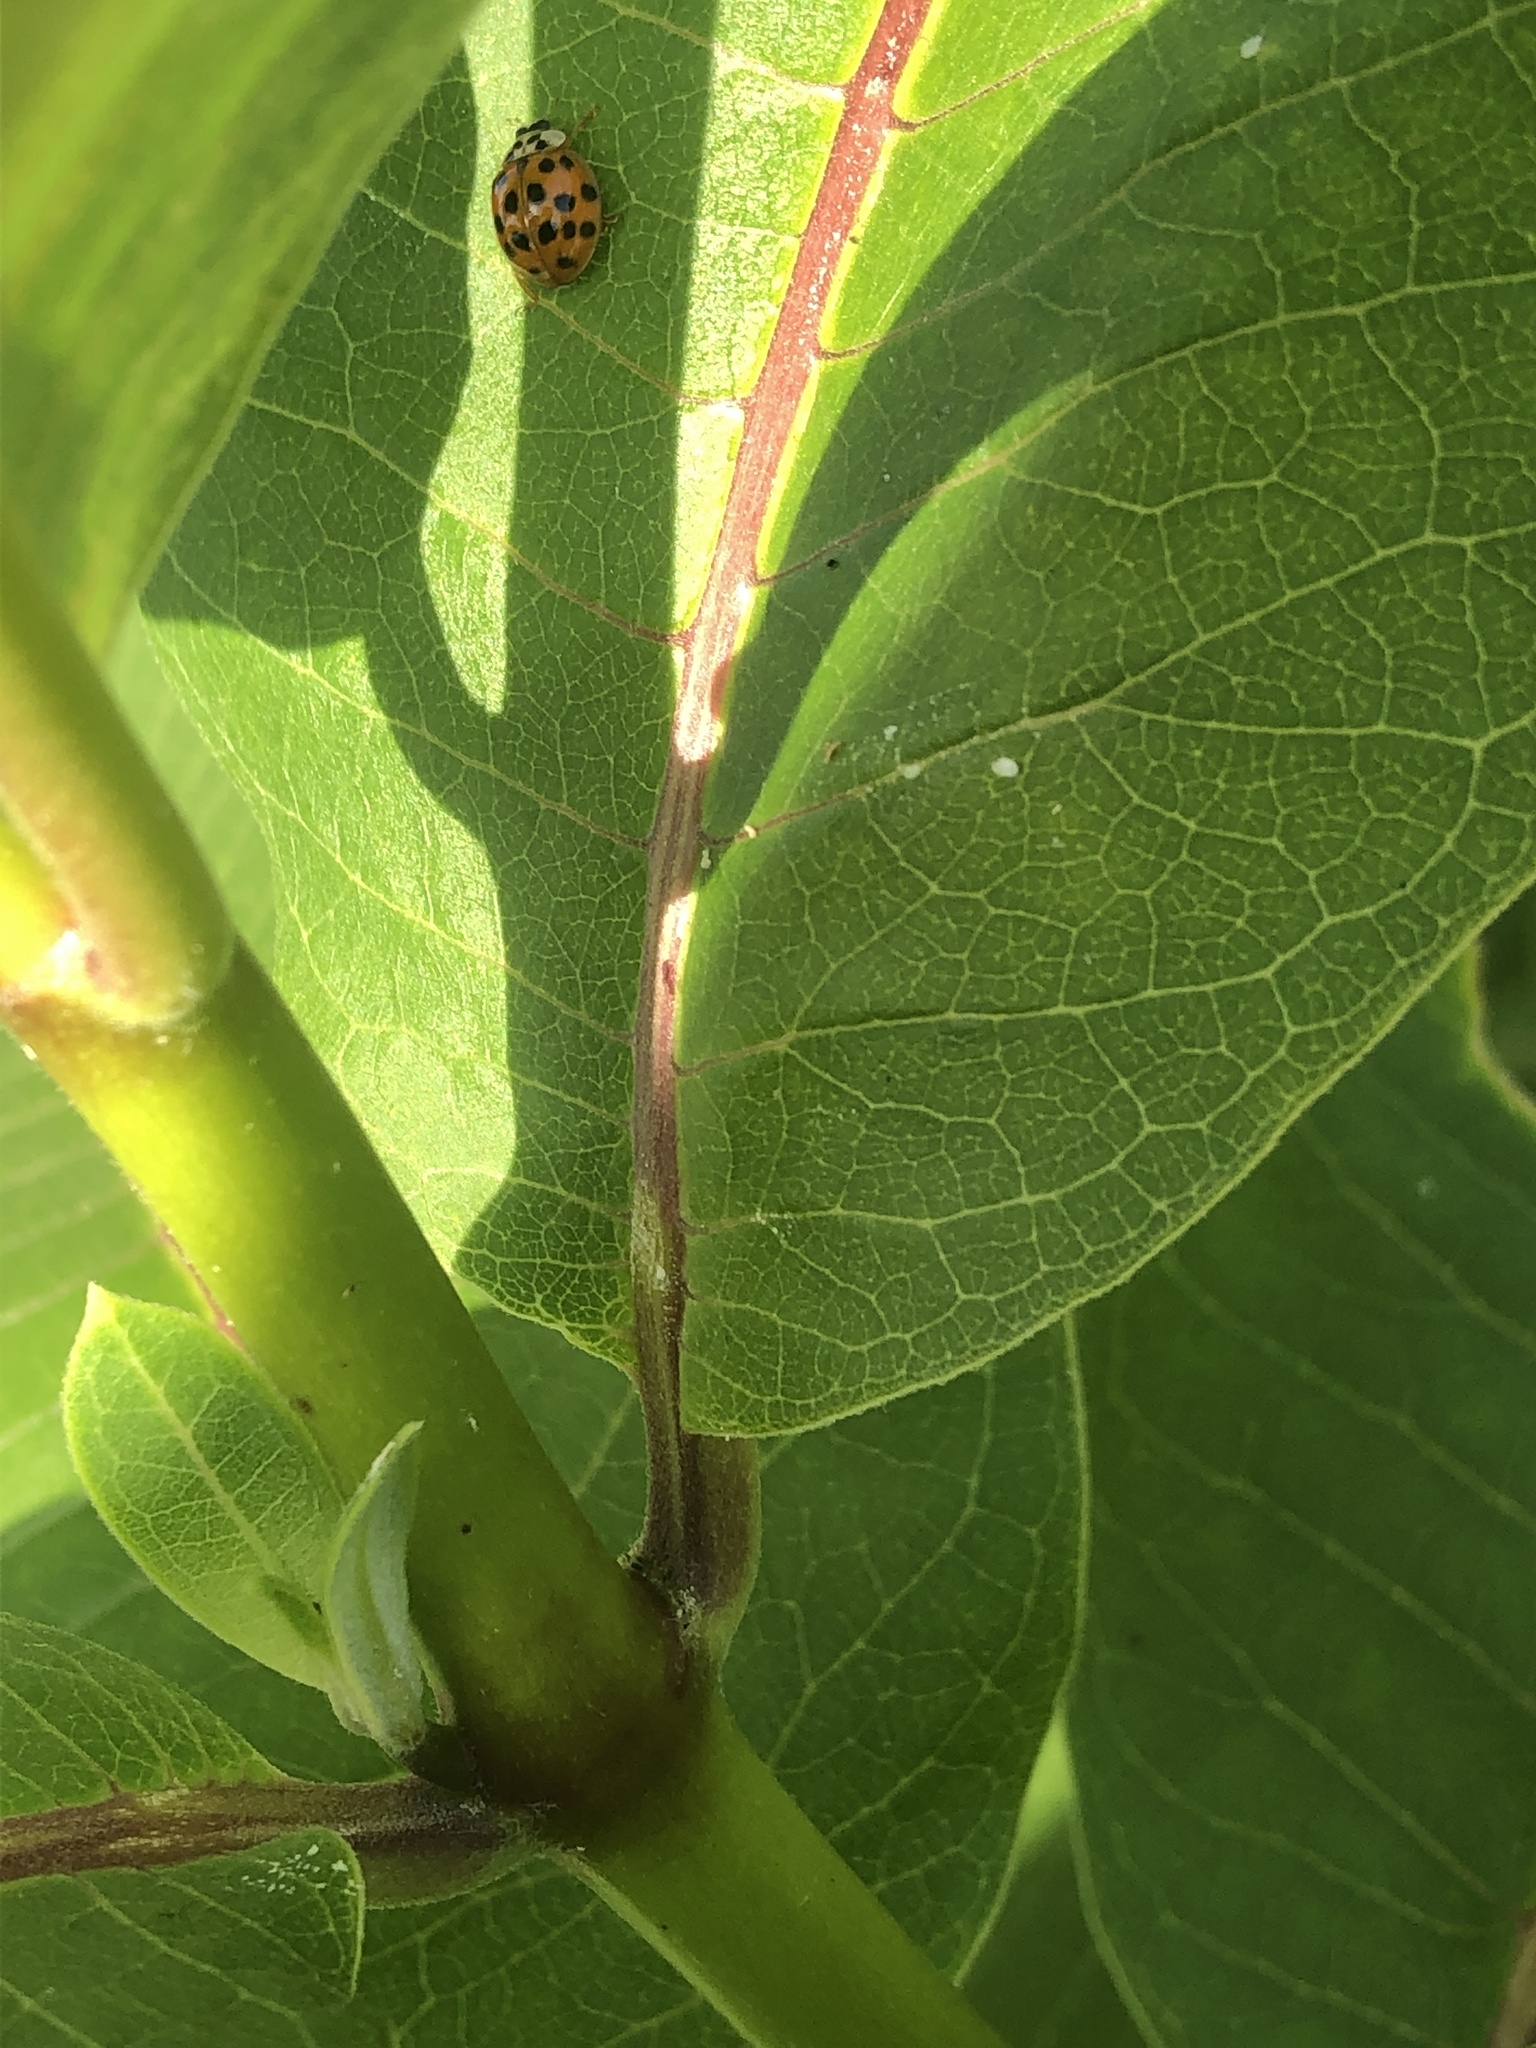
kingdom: Animalia
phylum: Arthropoda
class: Insecta
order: Coleoptera
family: Coccinellidae
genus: Harmonia
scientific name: Harmonia axyridis
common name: Harlequin ladybird
